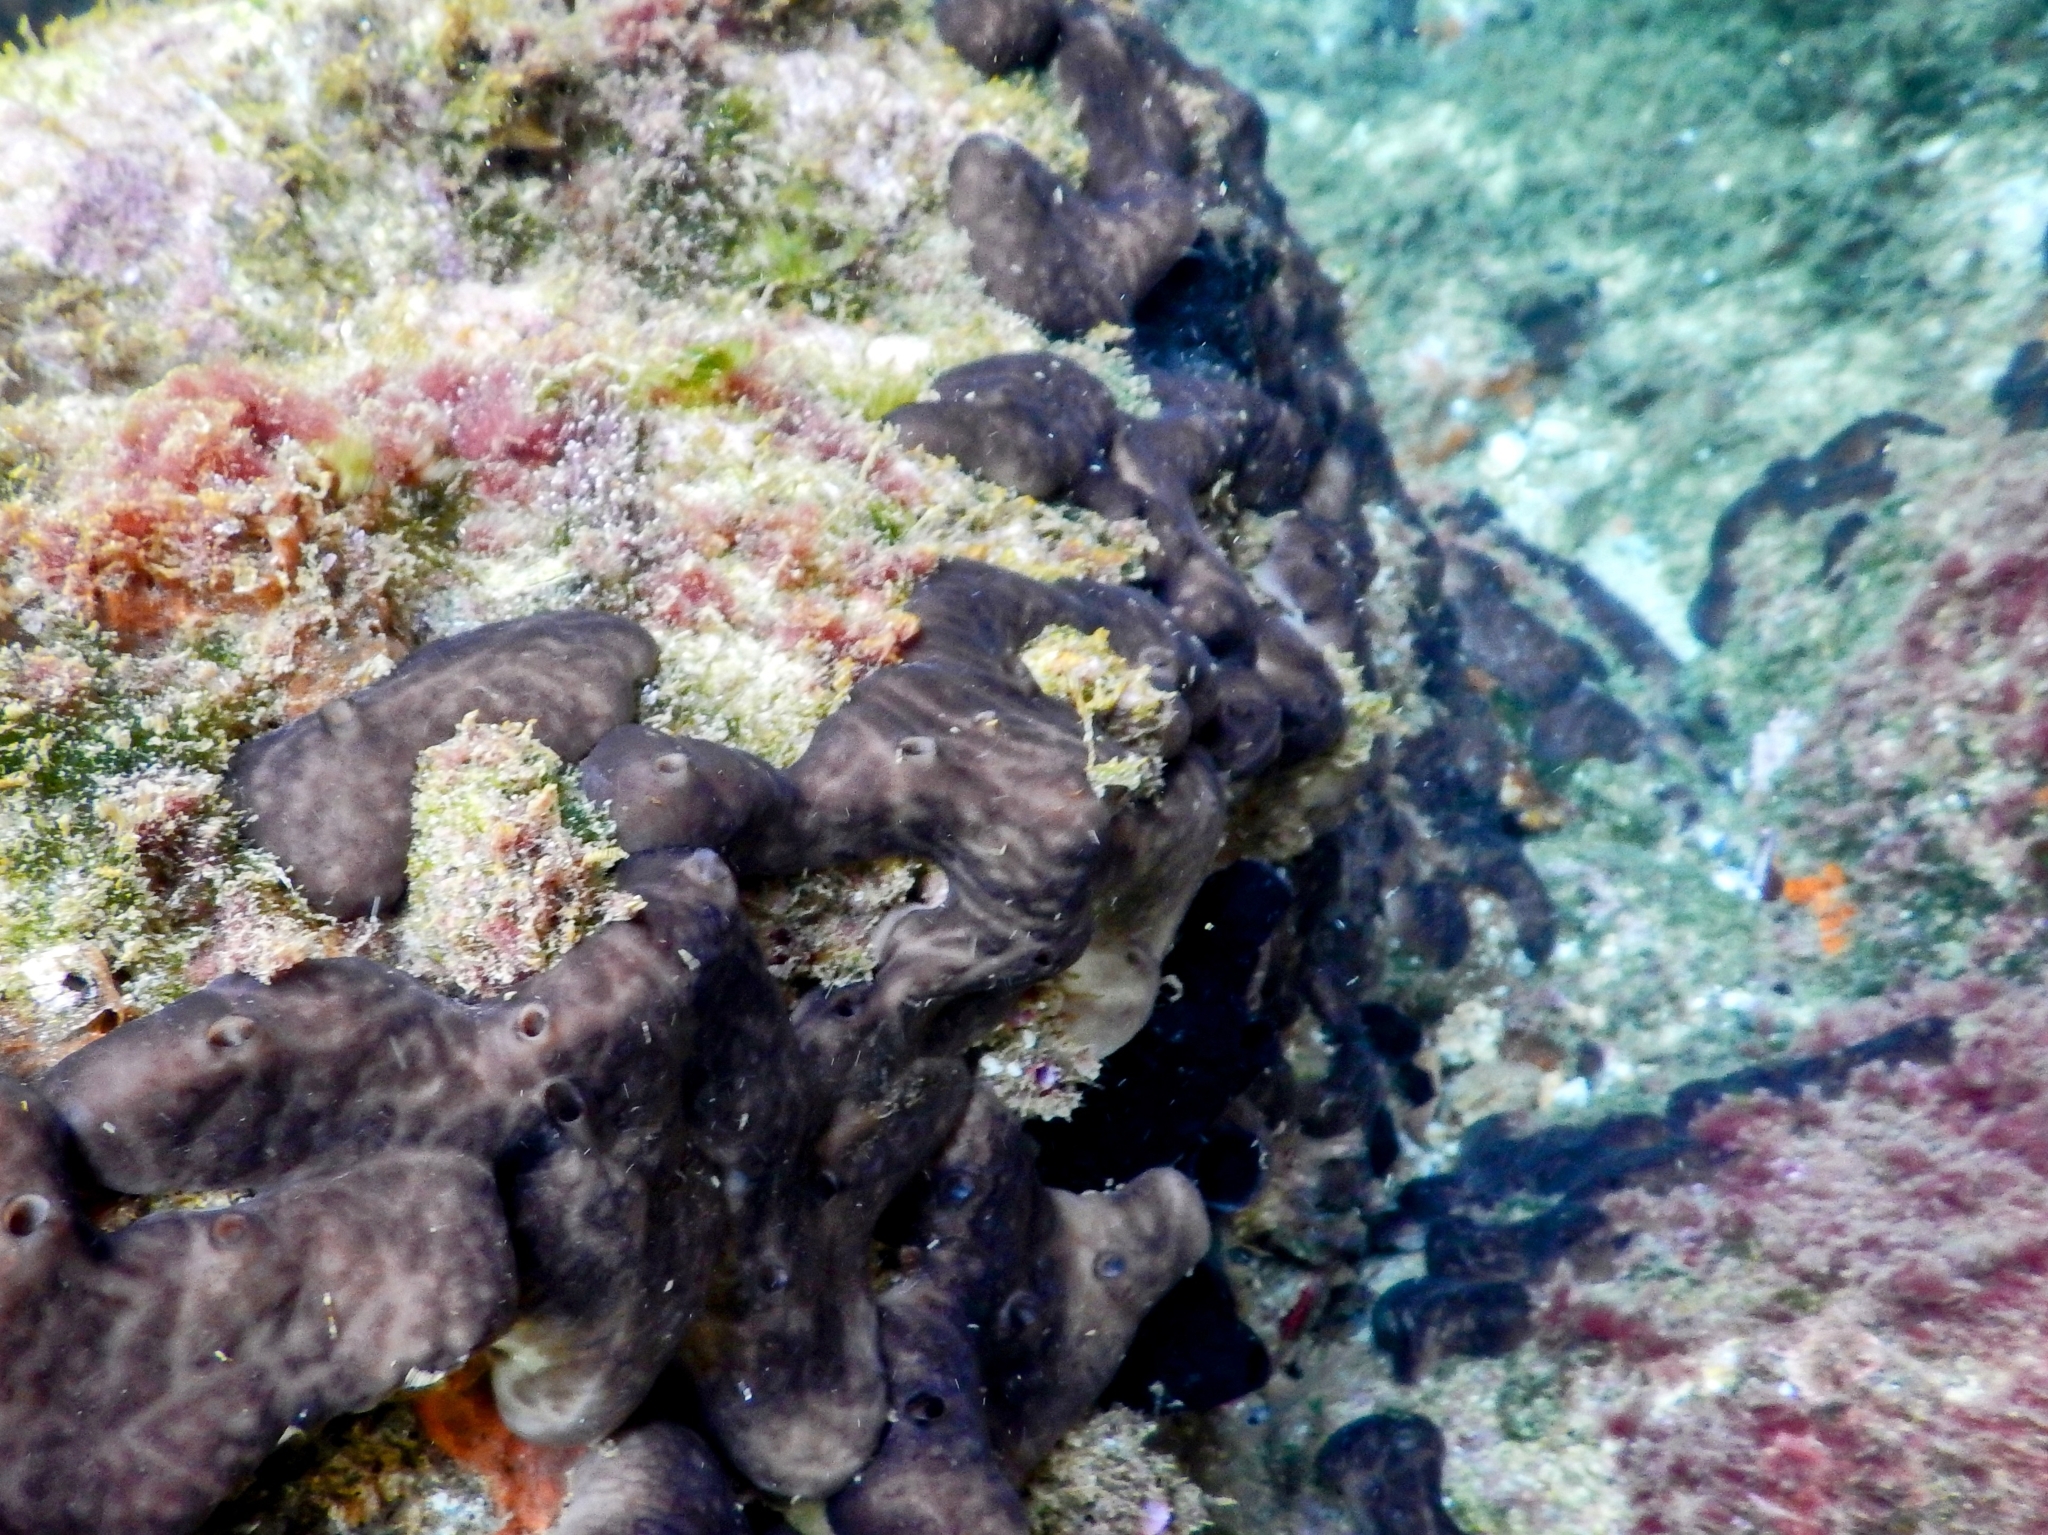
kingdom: Animalia
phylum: Porifera
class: Demospongiae
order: Chondrosiida
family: Chondrosiidae
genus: Chondrosia
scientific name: Chondrosia reniformis
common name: Chicken liver sponge
